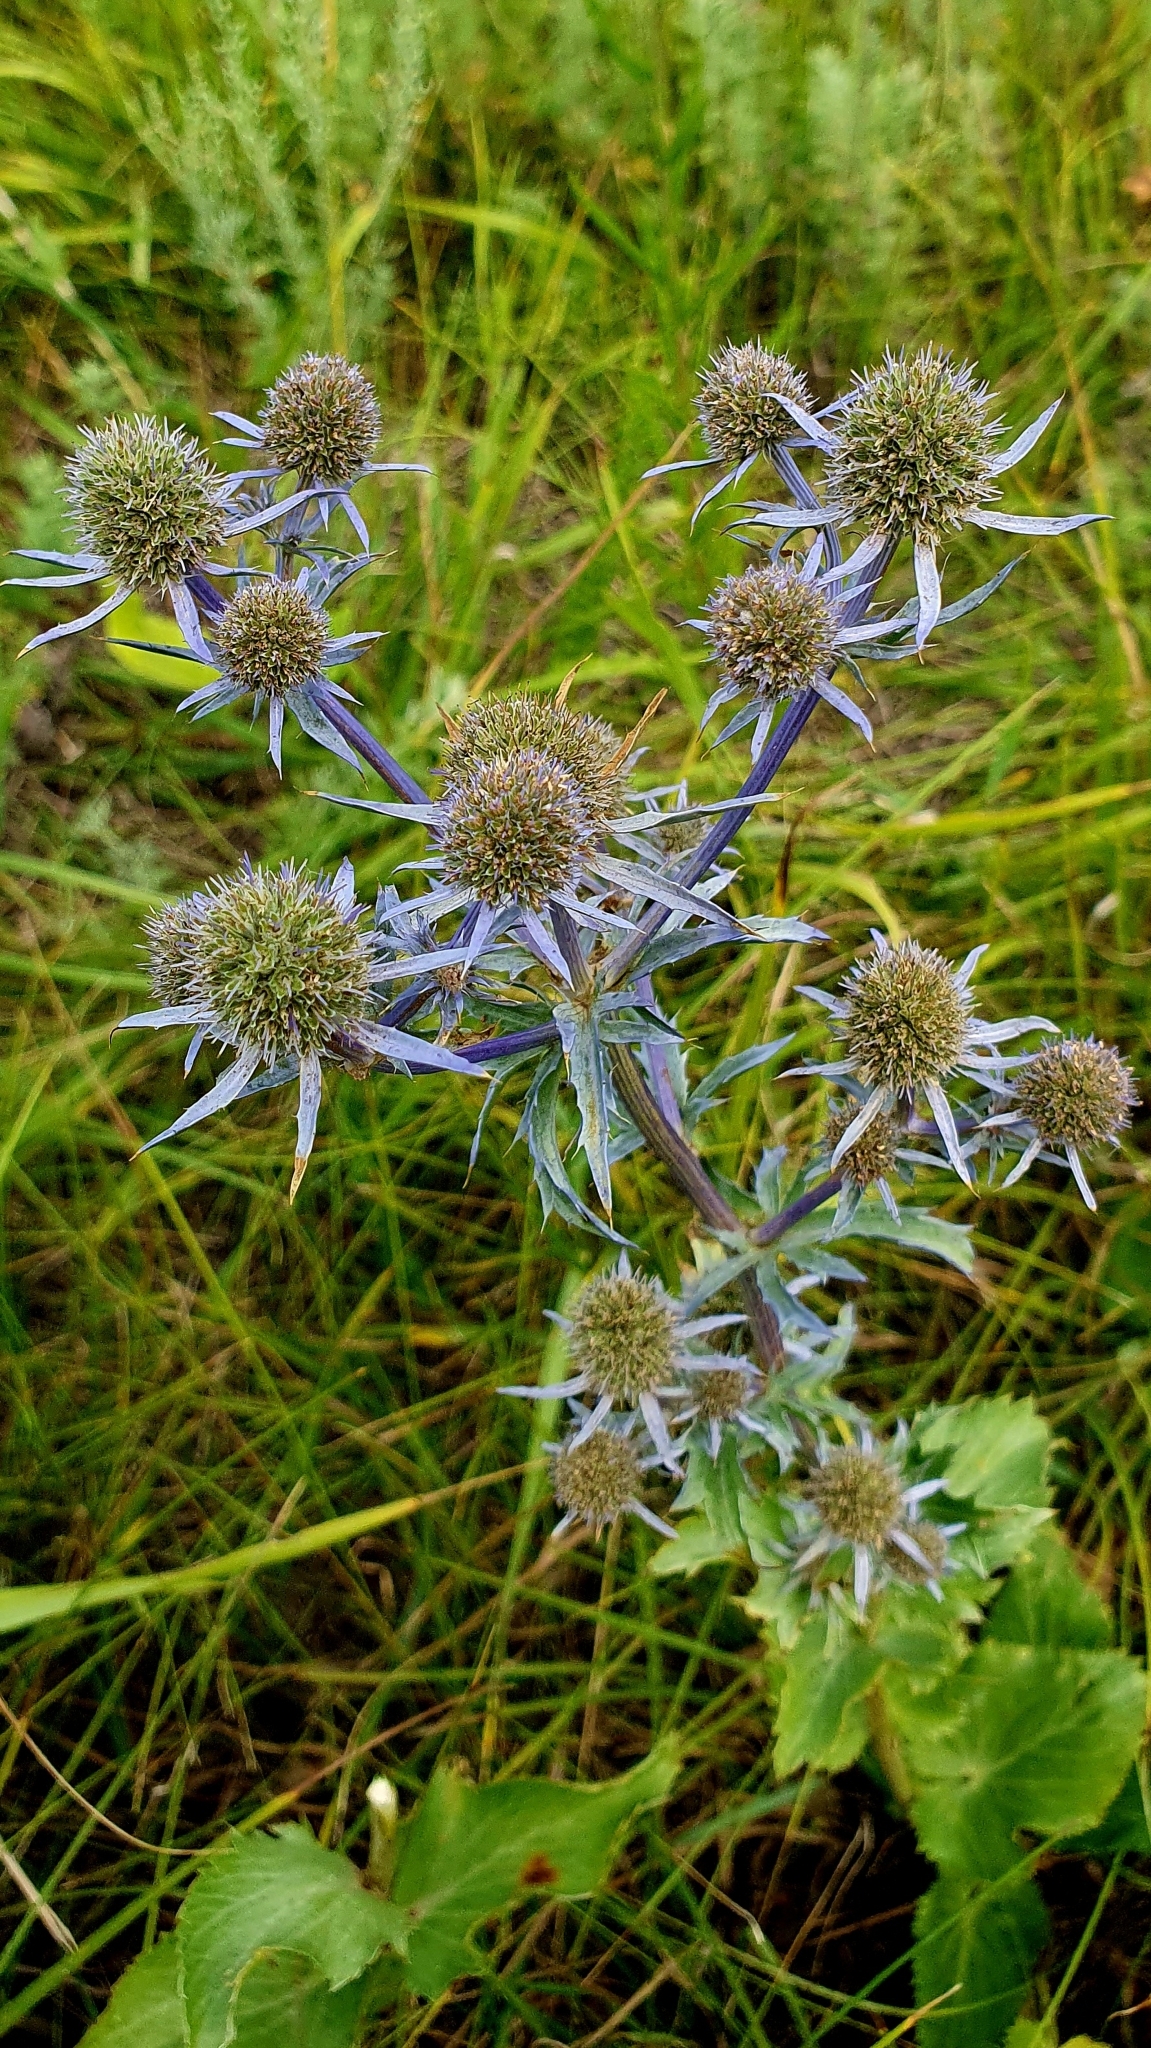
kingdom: Plantae
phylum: Tracheophyta
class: Magnoliopsida
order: Apiales
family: Apiaceae
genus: Eryngium
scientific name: Eryngium planum
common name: Blue eryngo
